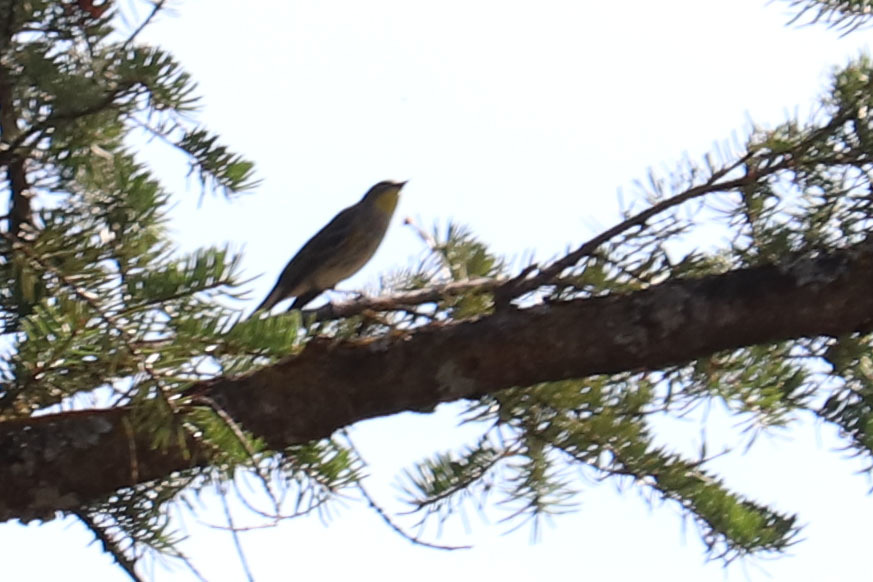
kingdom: Animalia
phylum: Chordata
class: Aves
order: Passeriformes
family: Parulidae
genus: Setophaga
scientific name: Setophaga coronata
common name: Myrtle warbler
